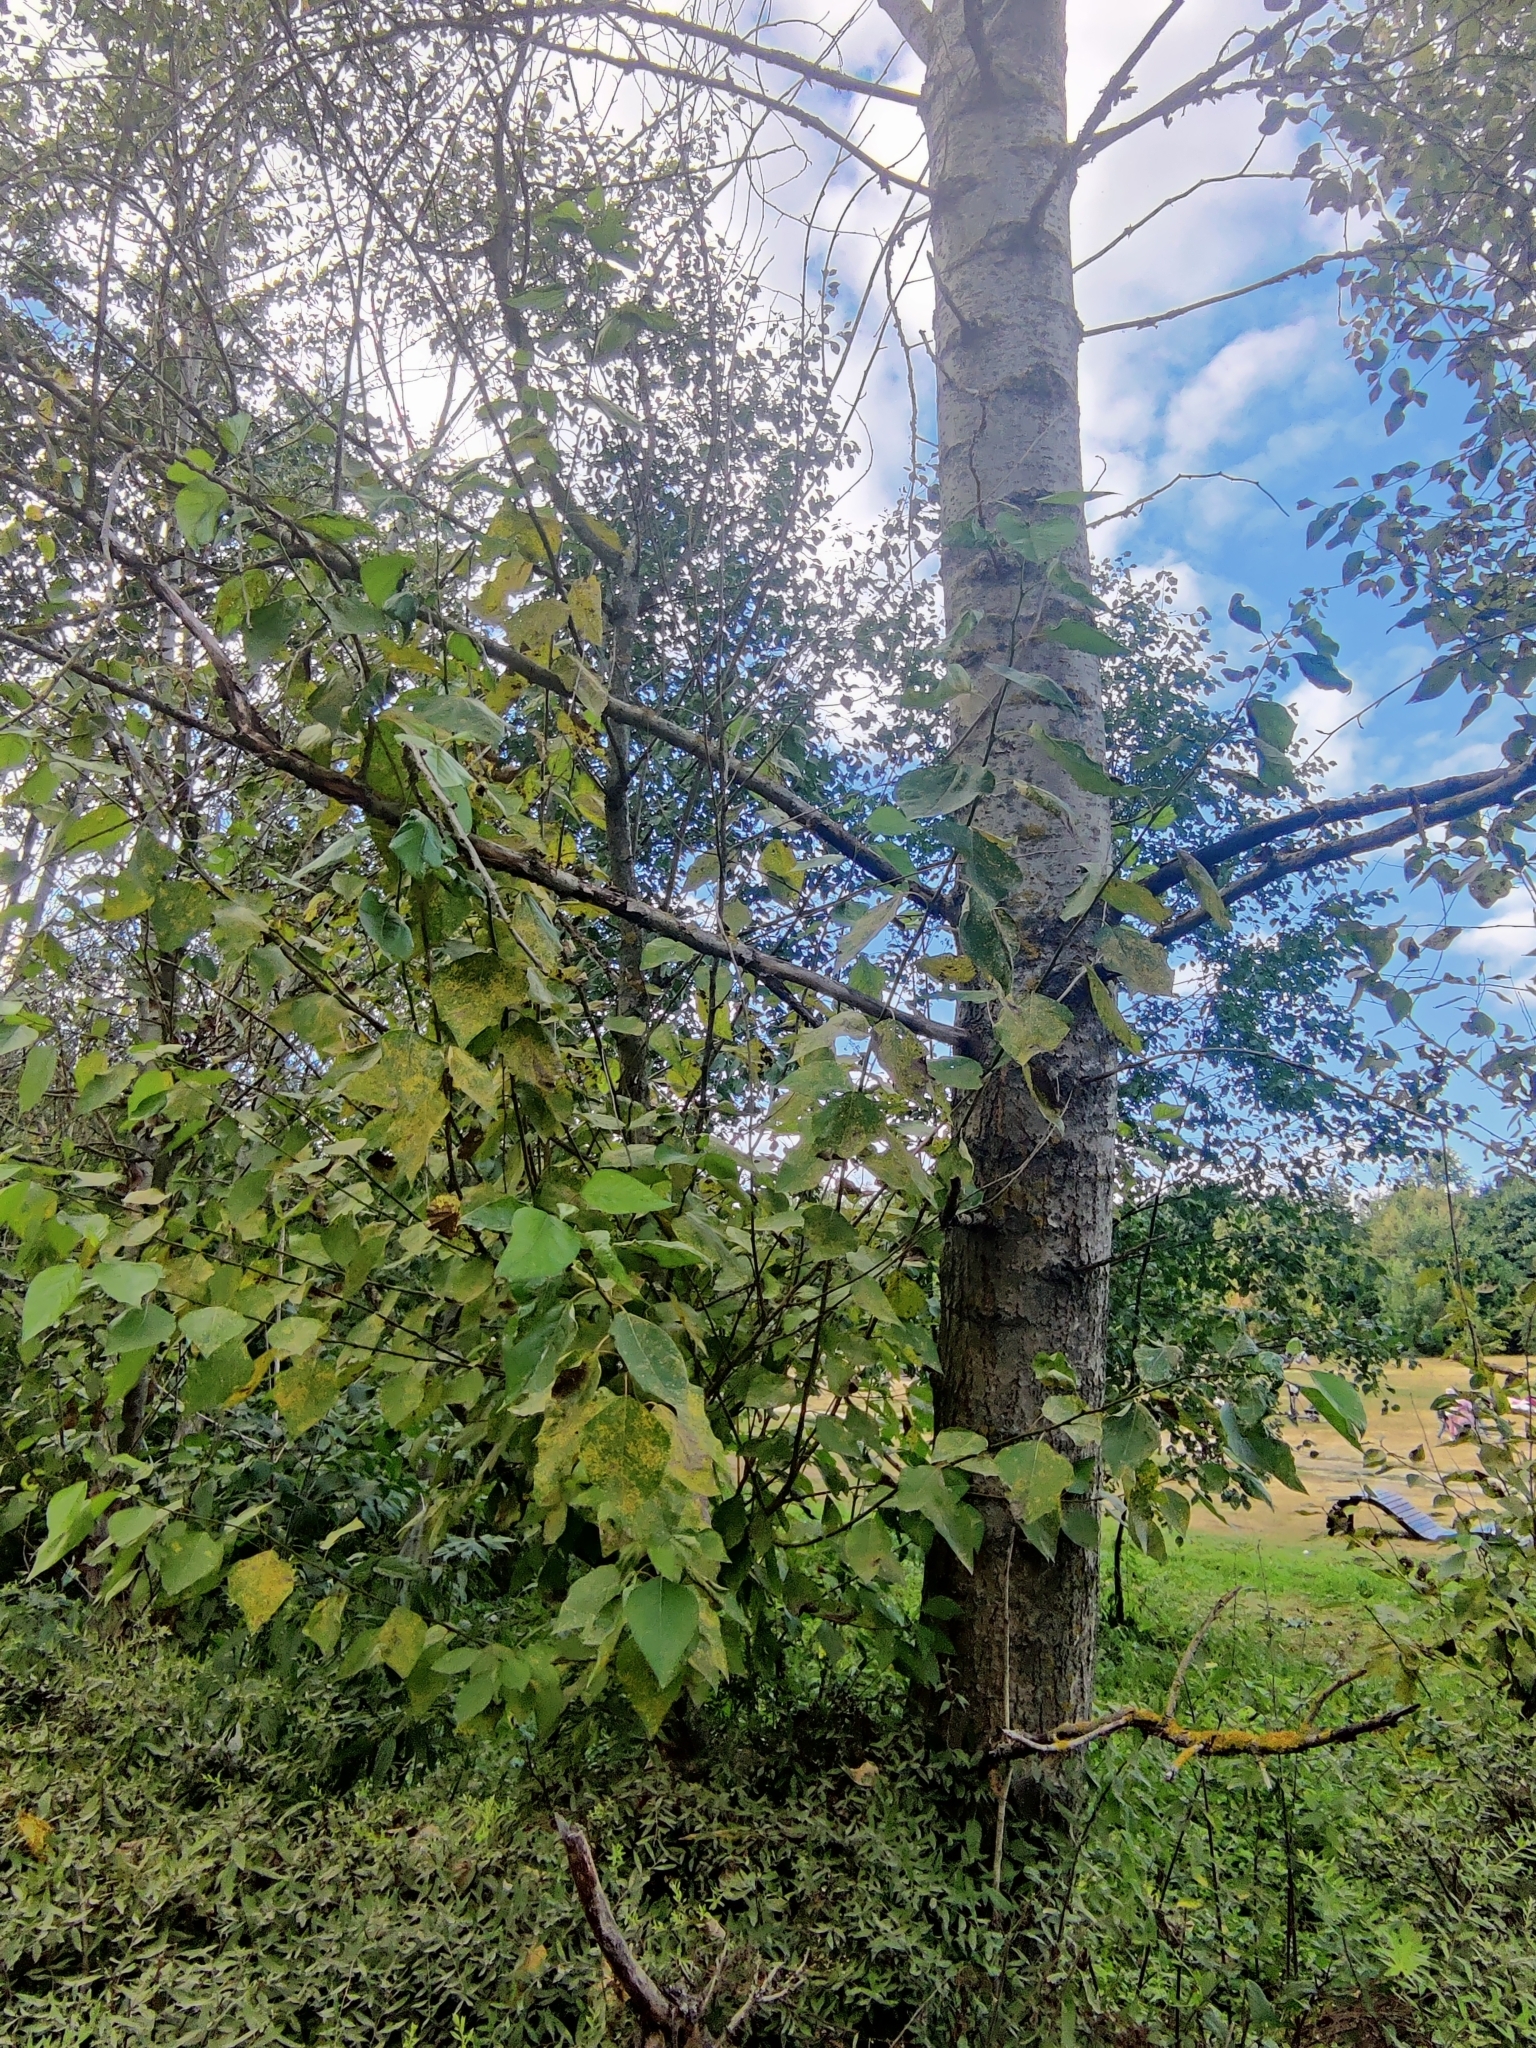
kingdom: Plantae
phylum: Tracheophyta
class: Magnoliopsida
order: Malpighiales
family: Salicaceae
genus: Populus
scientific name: Populus sibirica
